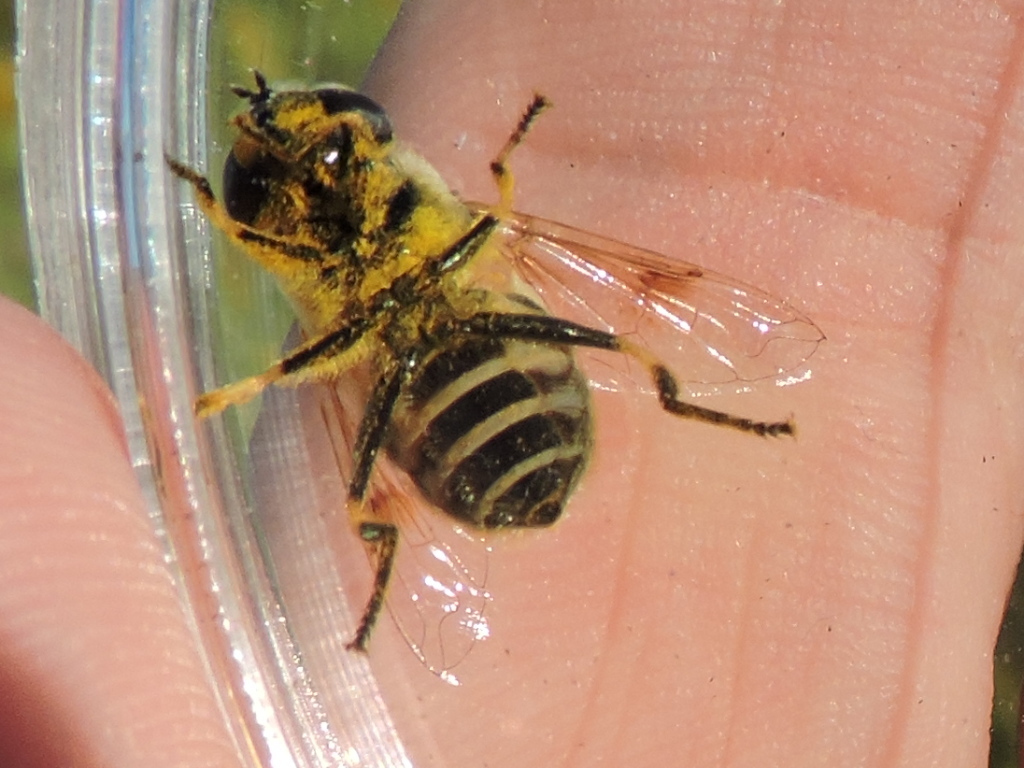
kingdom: Animalia
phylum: Arthropoda
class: Insecta
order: Diptera
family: Syrphidae
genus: Eristalis
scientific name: Eristalis stipator
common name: Yellow-shouldered drone fly
